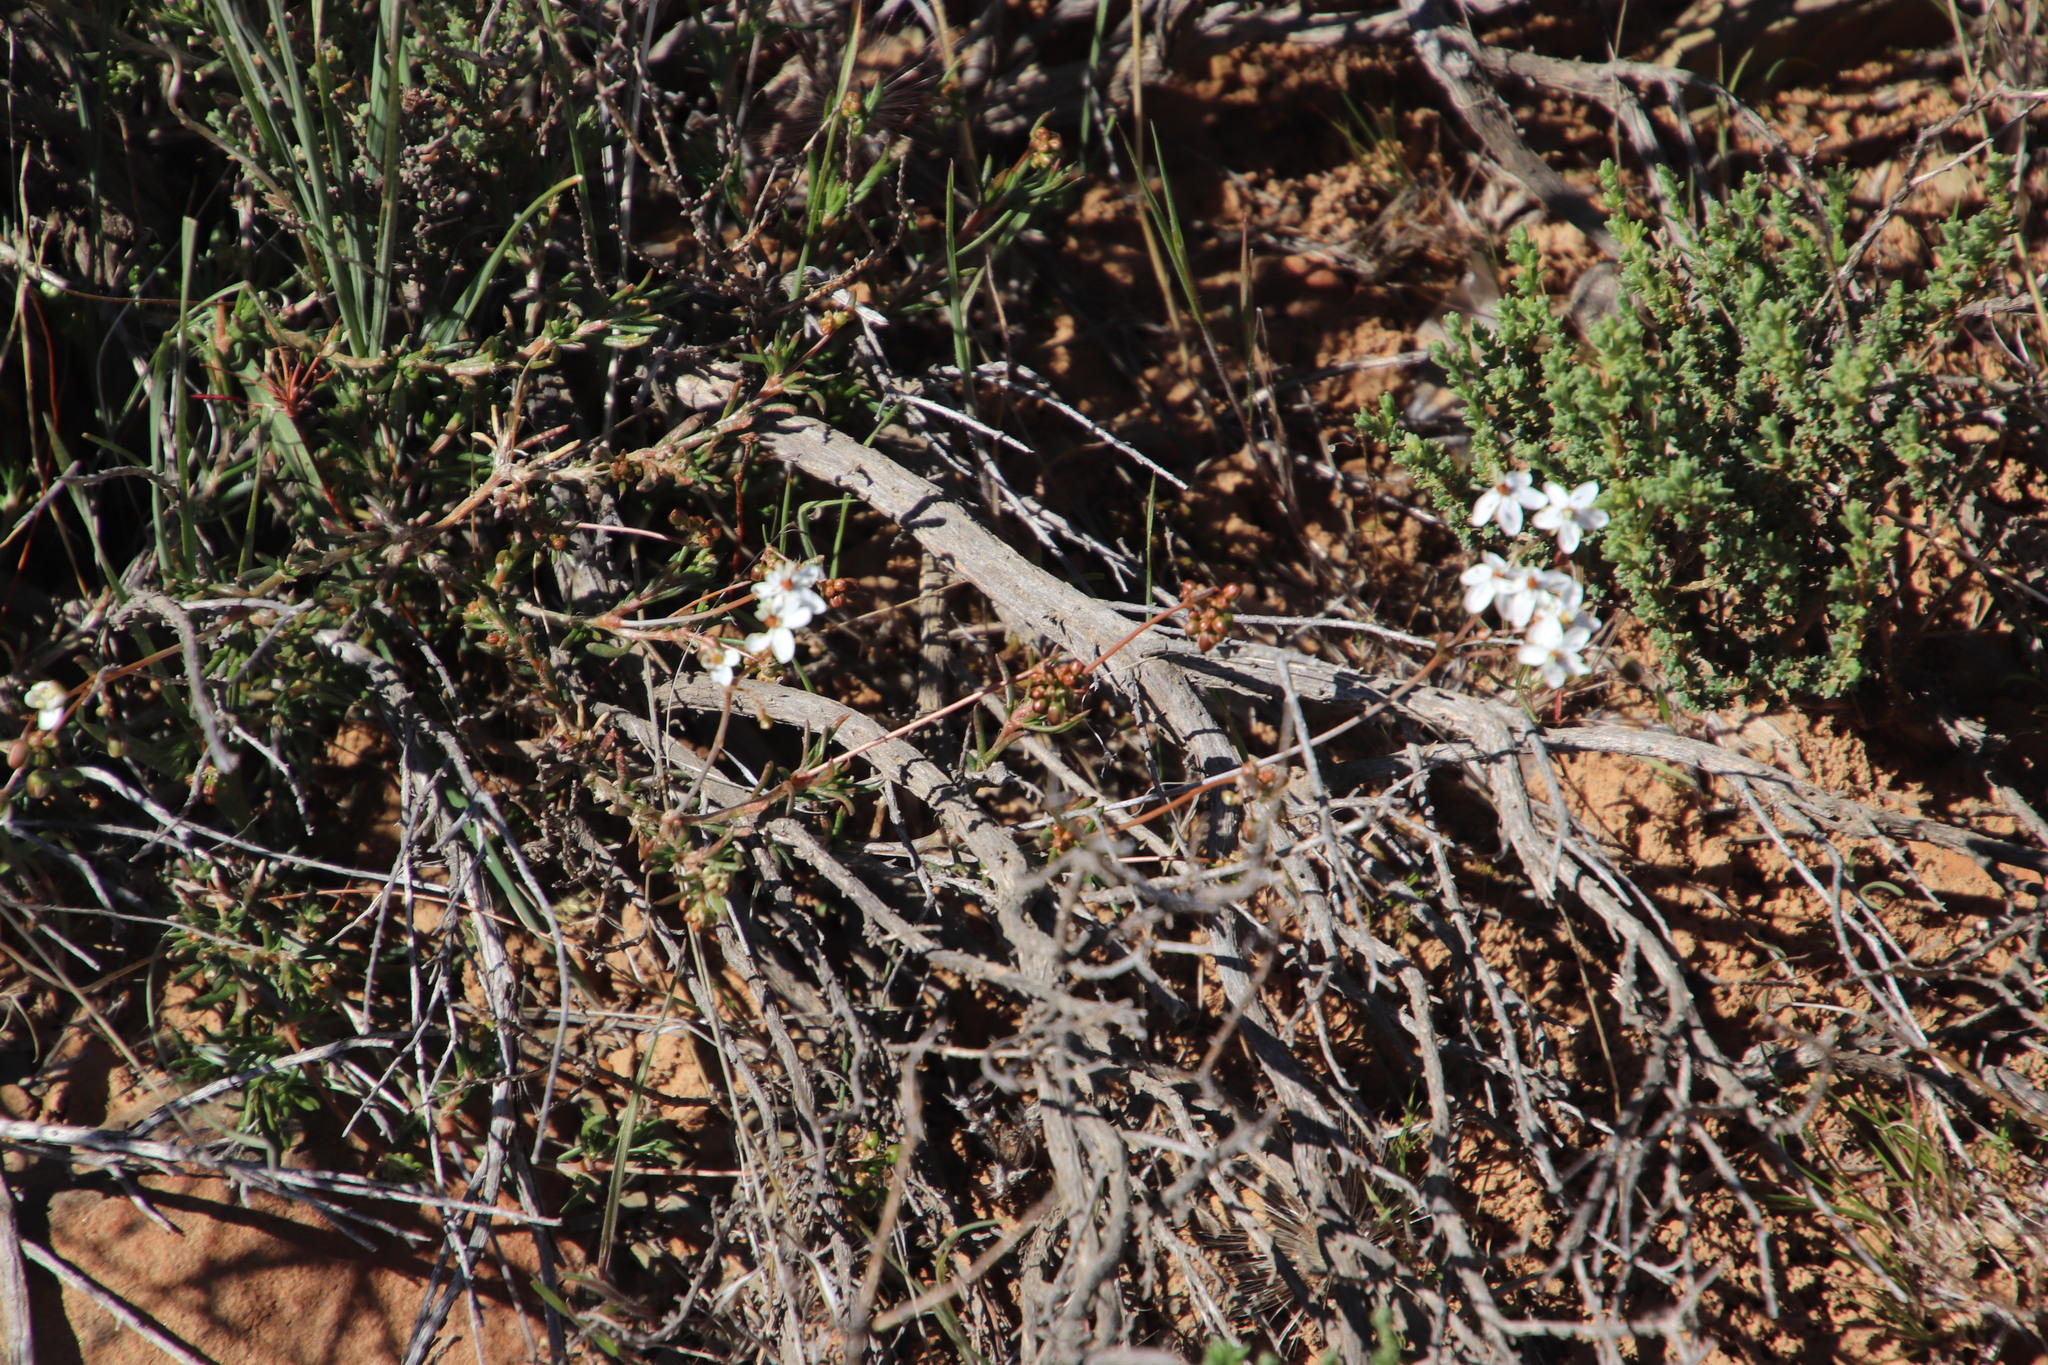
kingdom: Plantae
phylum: Tracheophyta
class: Magnoliopsida
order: Caryophyllales
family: Molluginaceae
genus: Pharnaceum
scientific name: Pharnaceum aurantium
